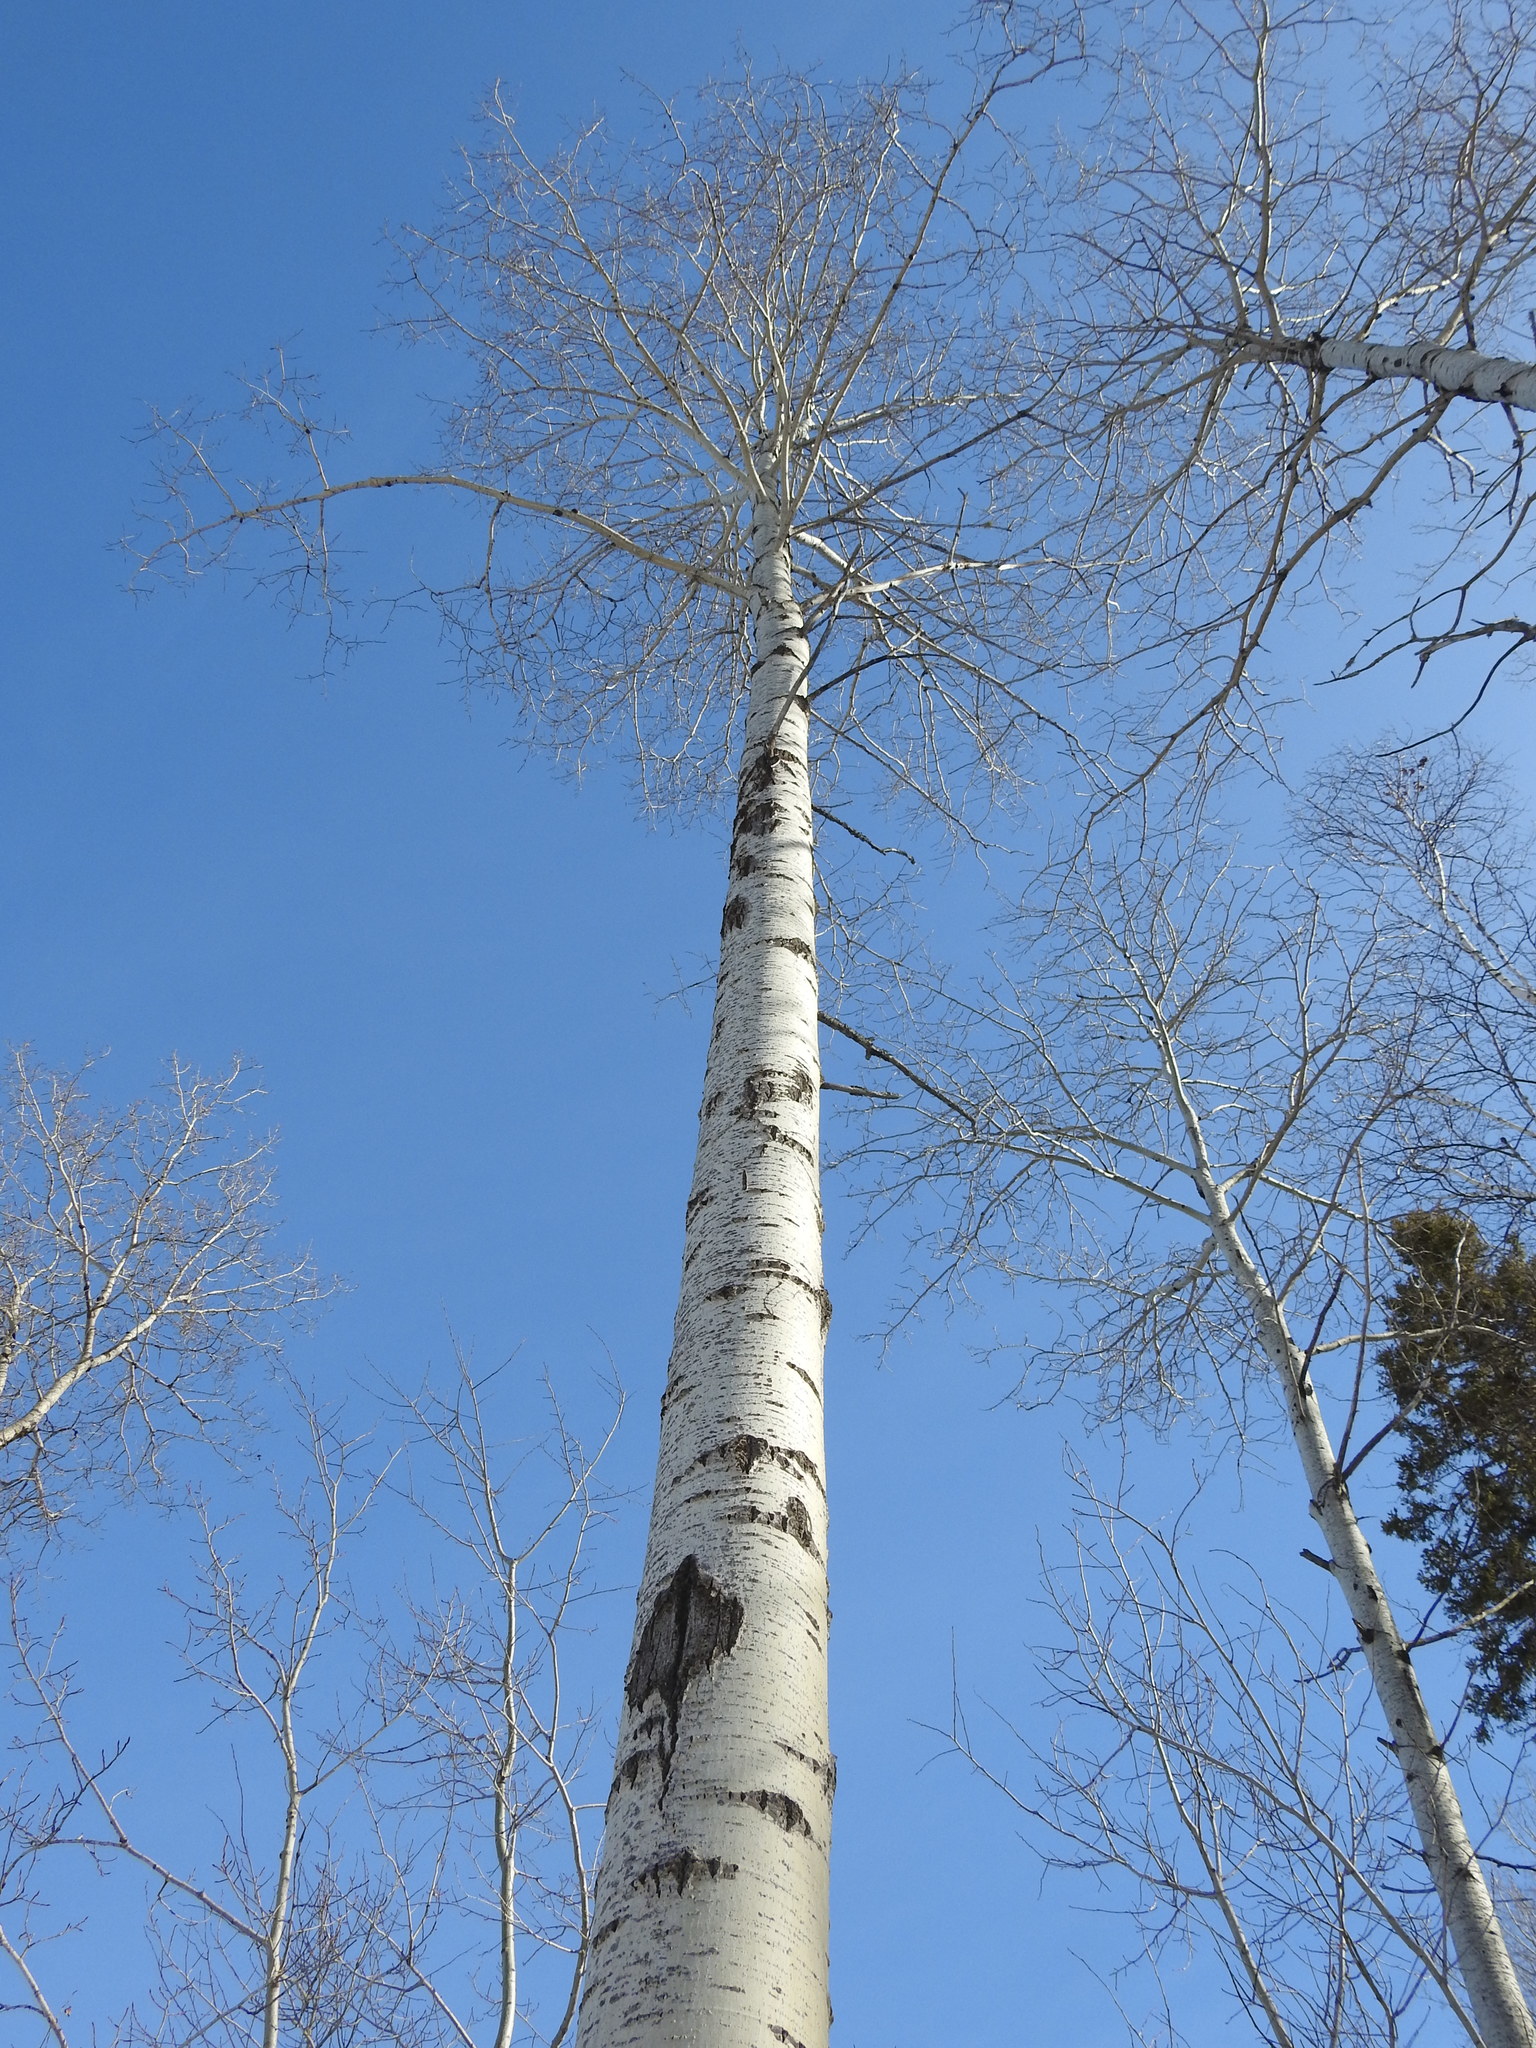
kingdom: Plantae
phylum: Tracheophyta
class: Magnoliopsida
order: Malpighiales
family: Salicaceae
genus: Populus
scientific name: Populus tremuloides
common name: Quaking aspen
